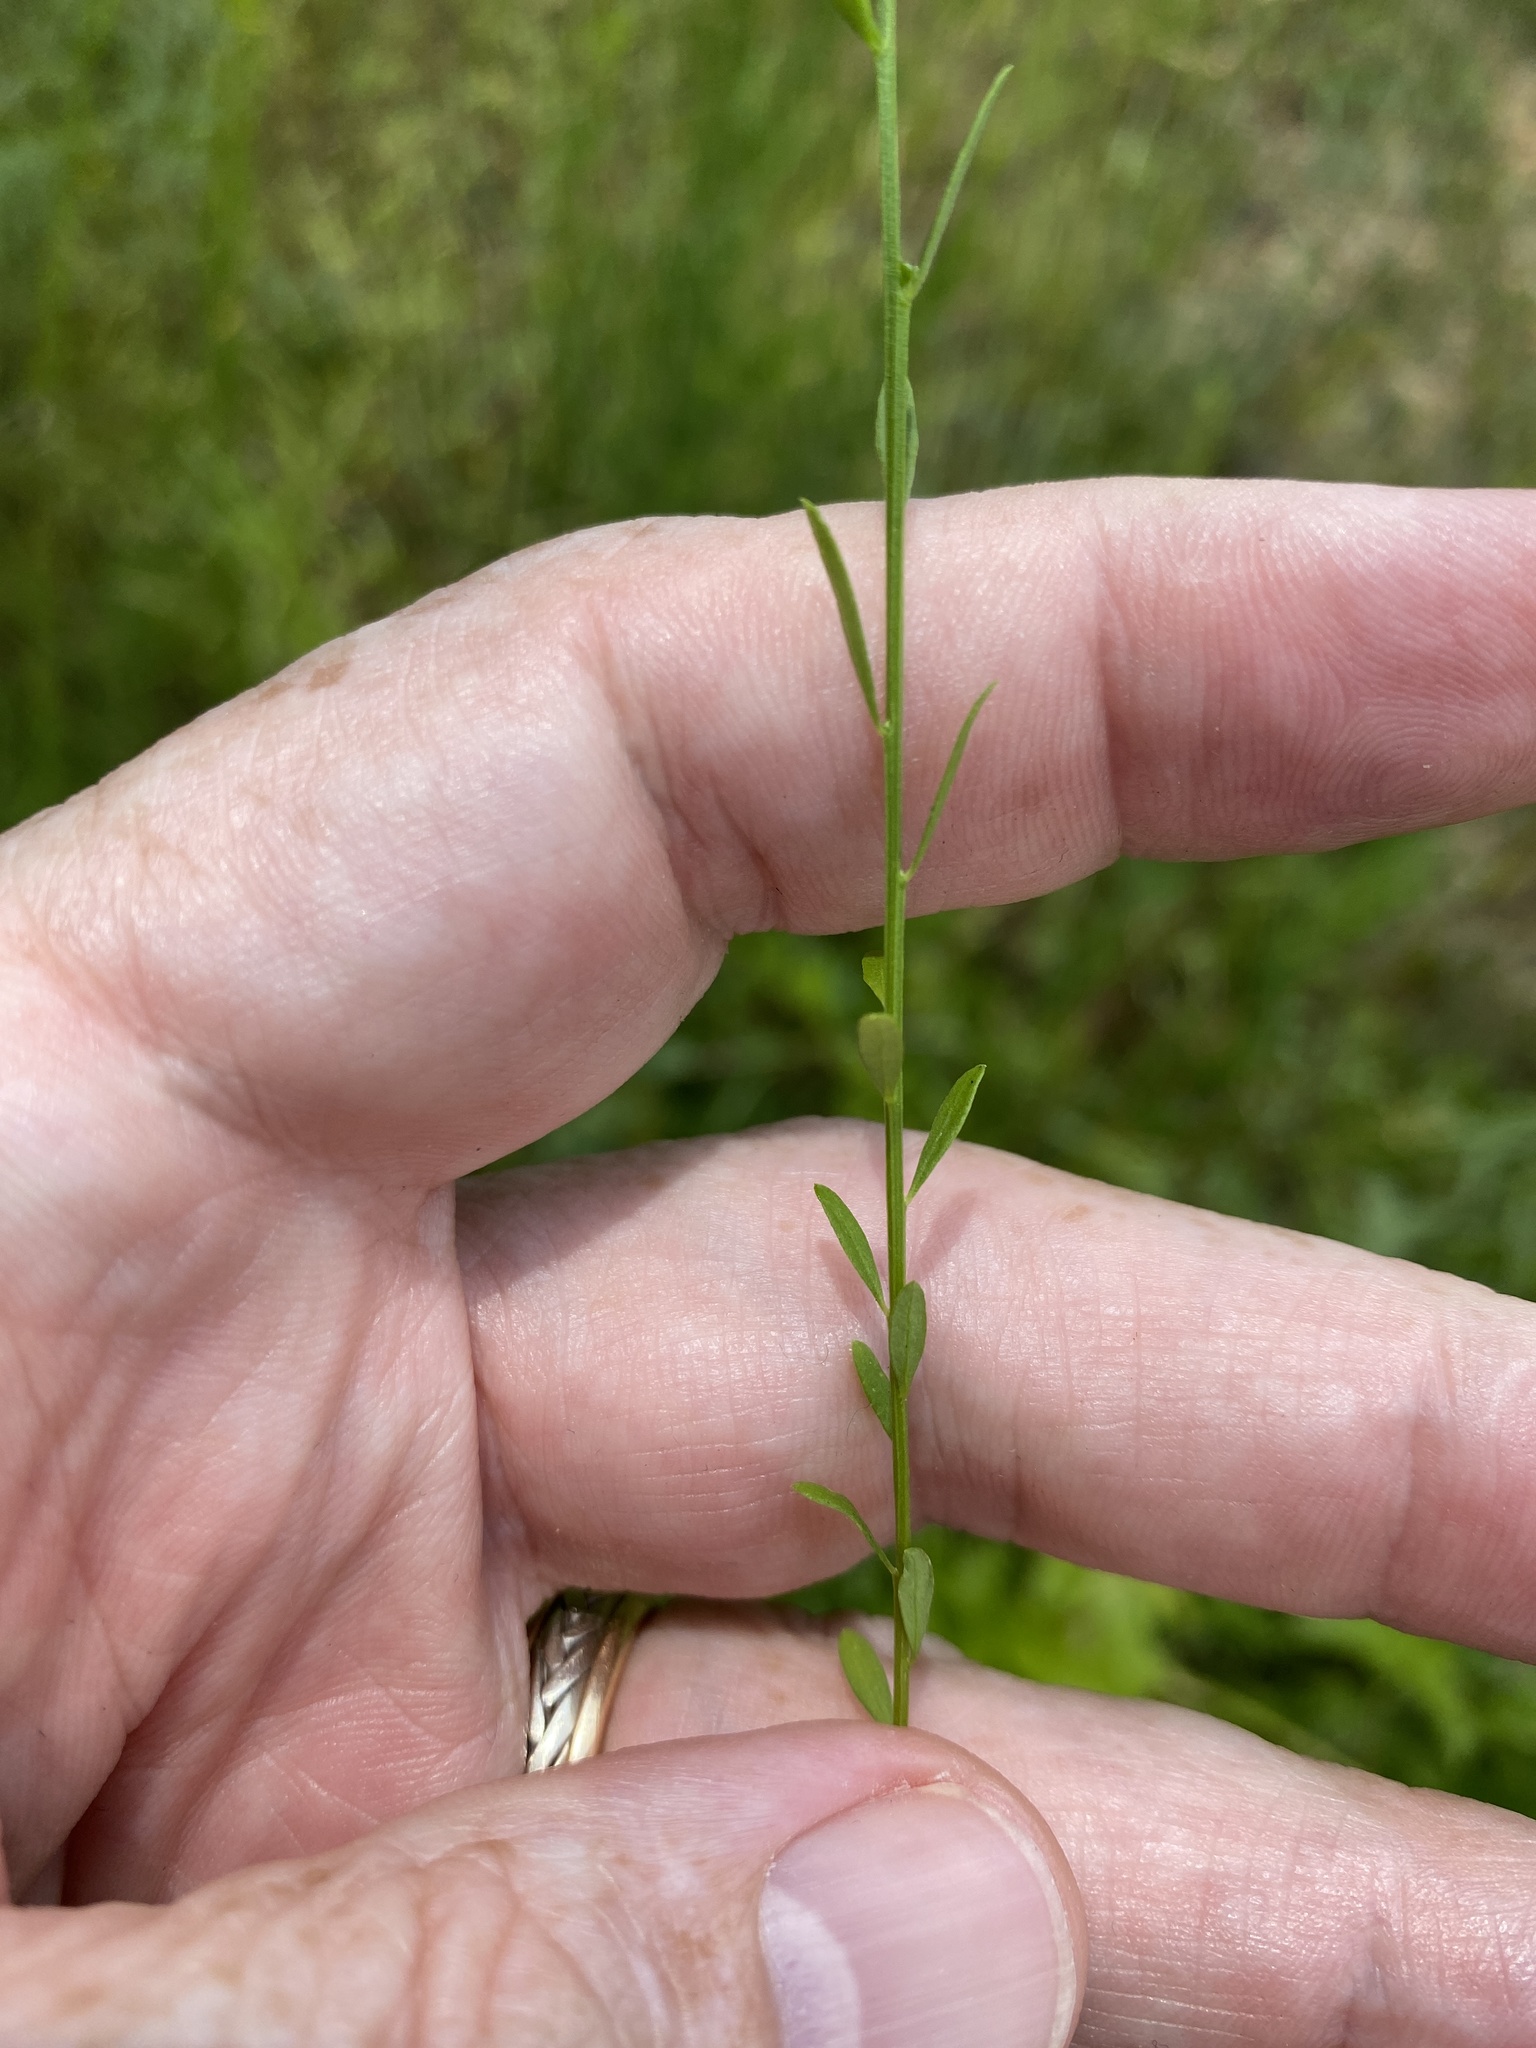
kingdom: Plantae
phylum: Tracheophyta
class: Magnoliopsida
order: Fabales
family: Polygalaceae
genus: Polygala
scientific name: Polygala nuttallii
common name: Nuttall's milkwort
